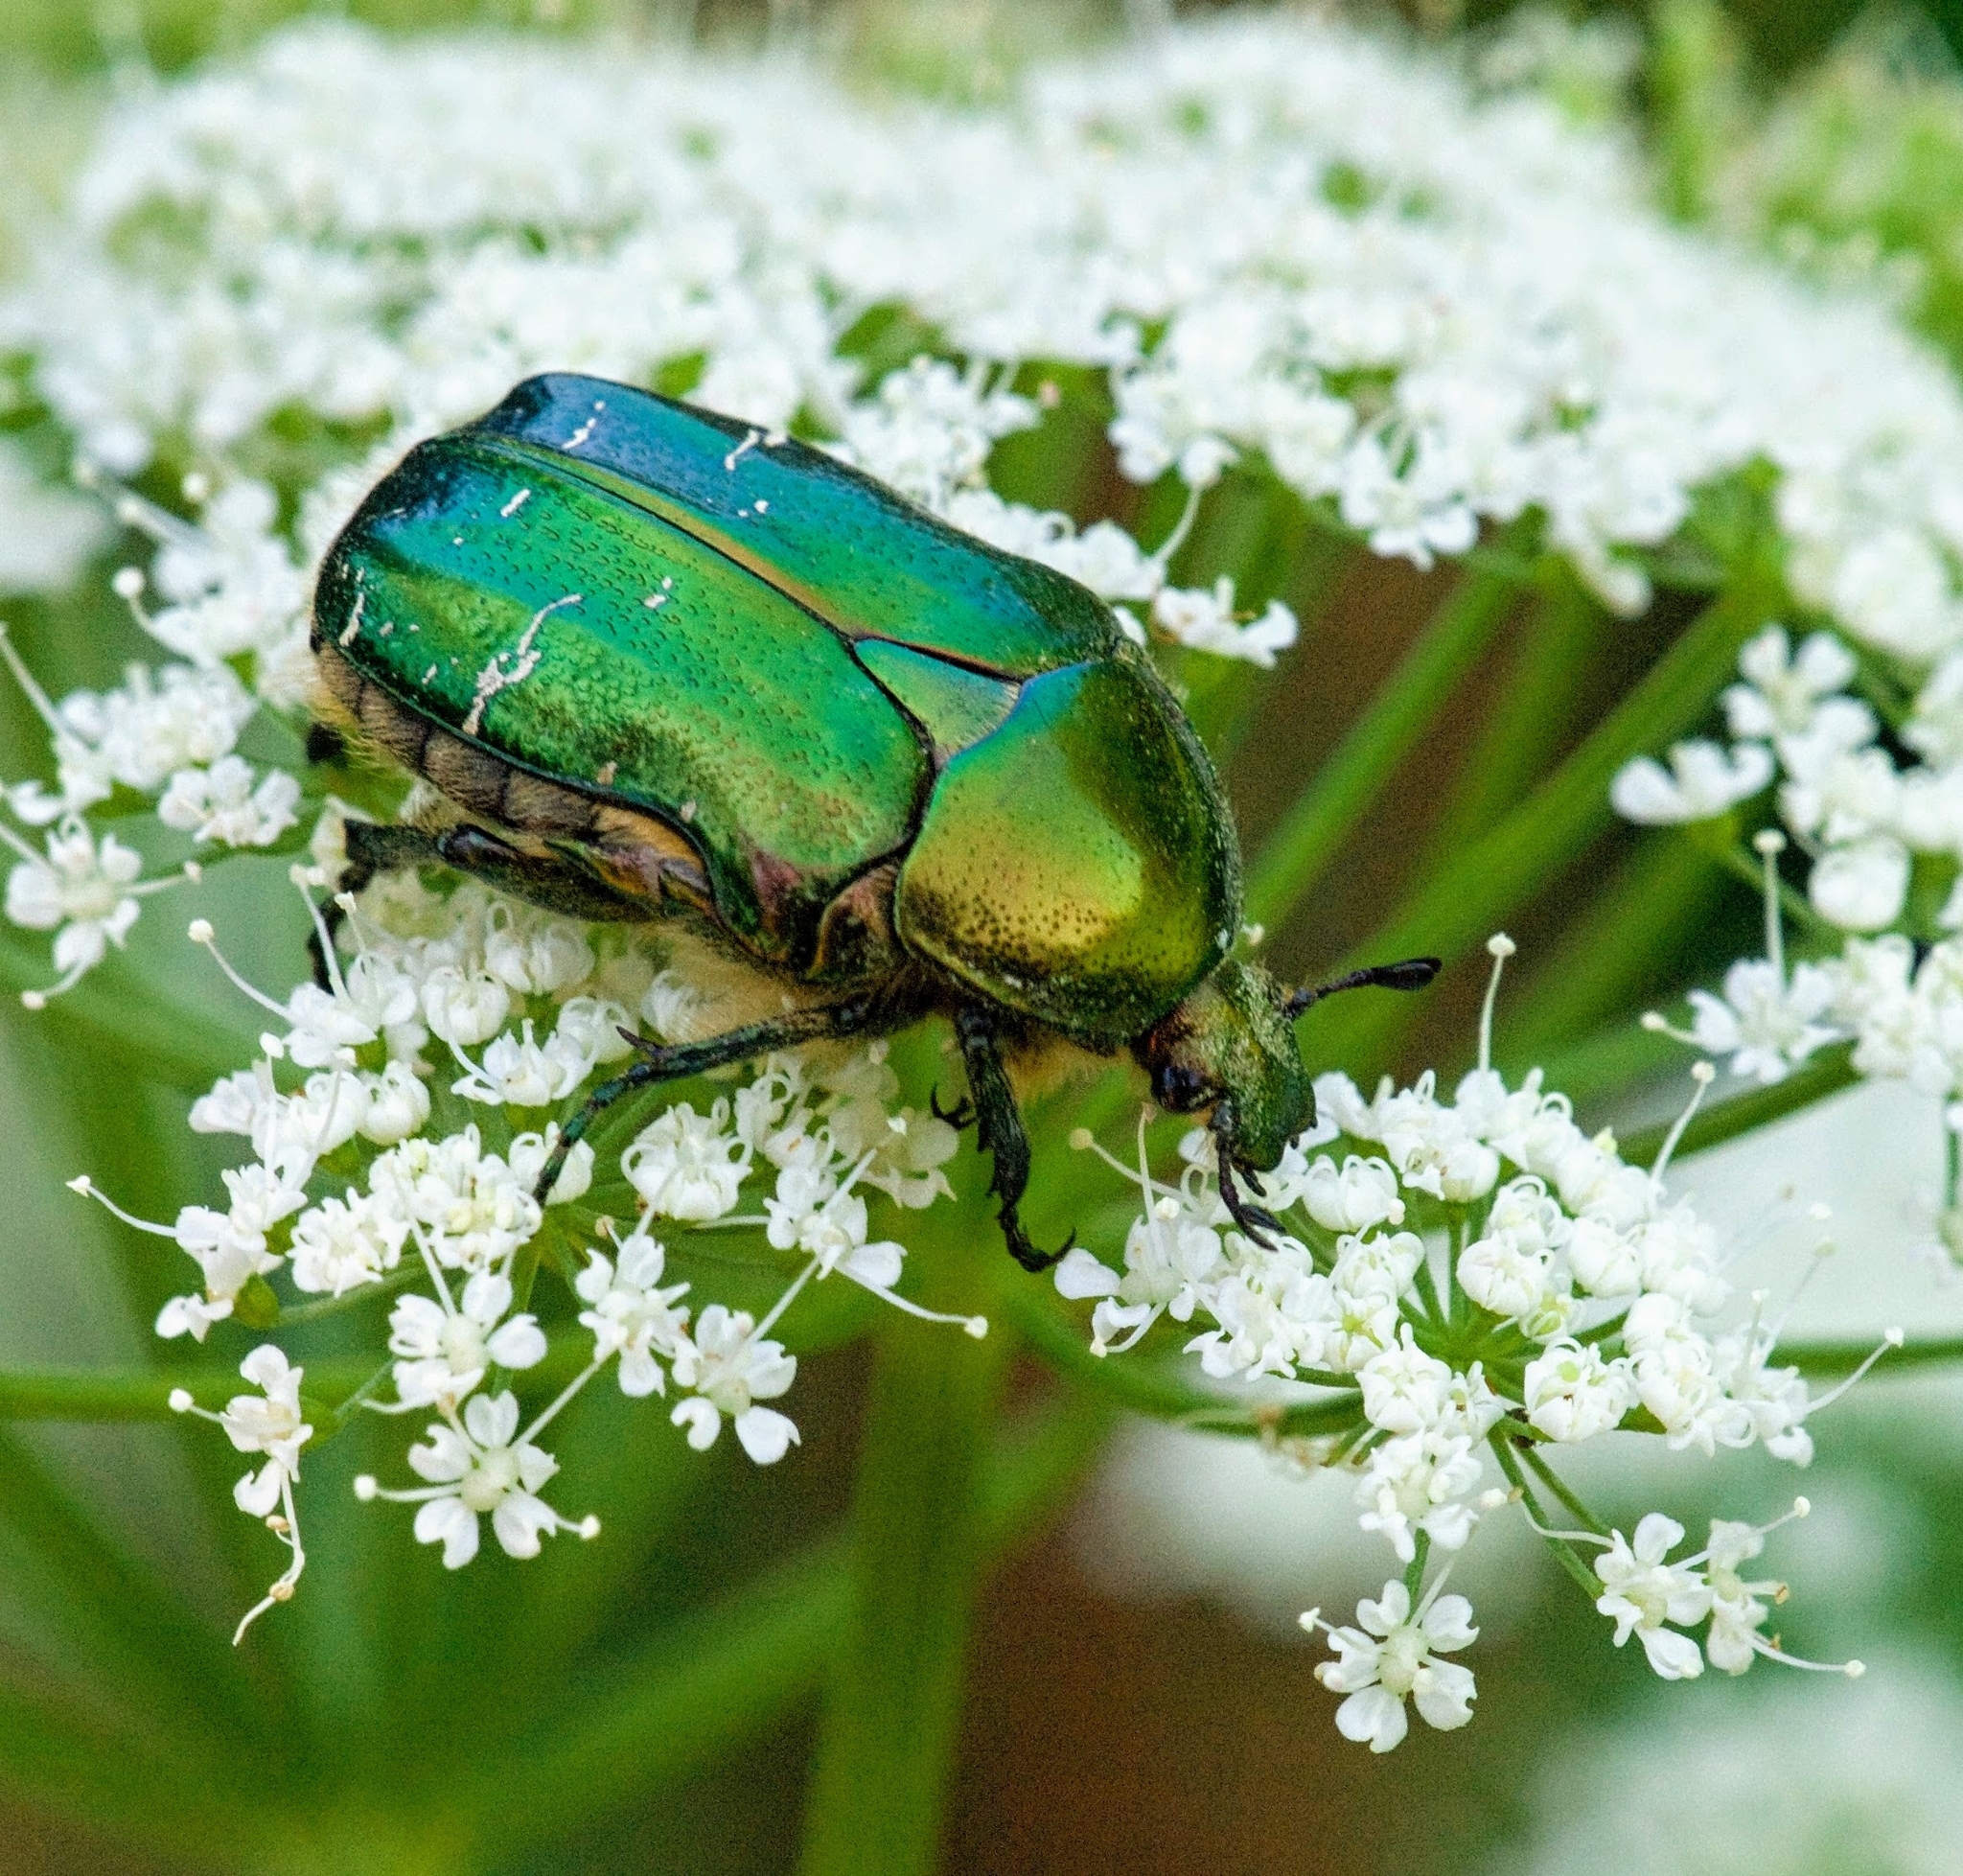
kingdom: Animalia
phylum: Arthropoda
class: Insecta
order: Coleoptera
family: Scarabaeidae
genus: Cetonia
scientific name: Cetonia aurata
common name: Rose chafer
